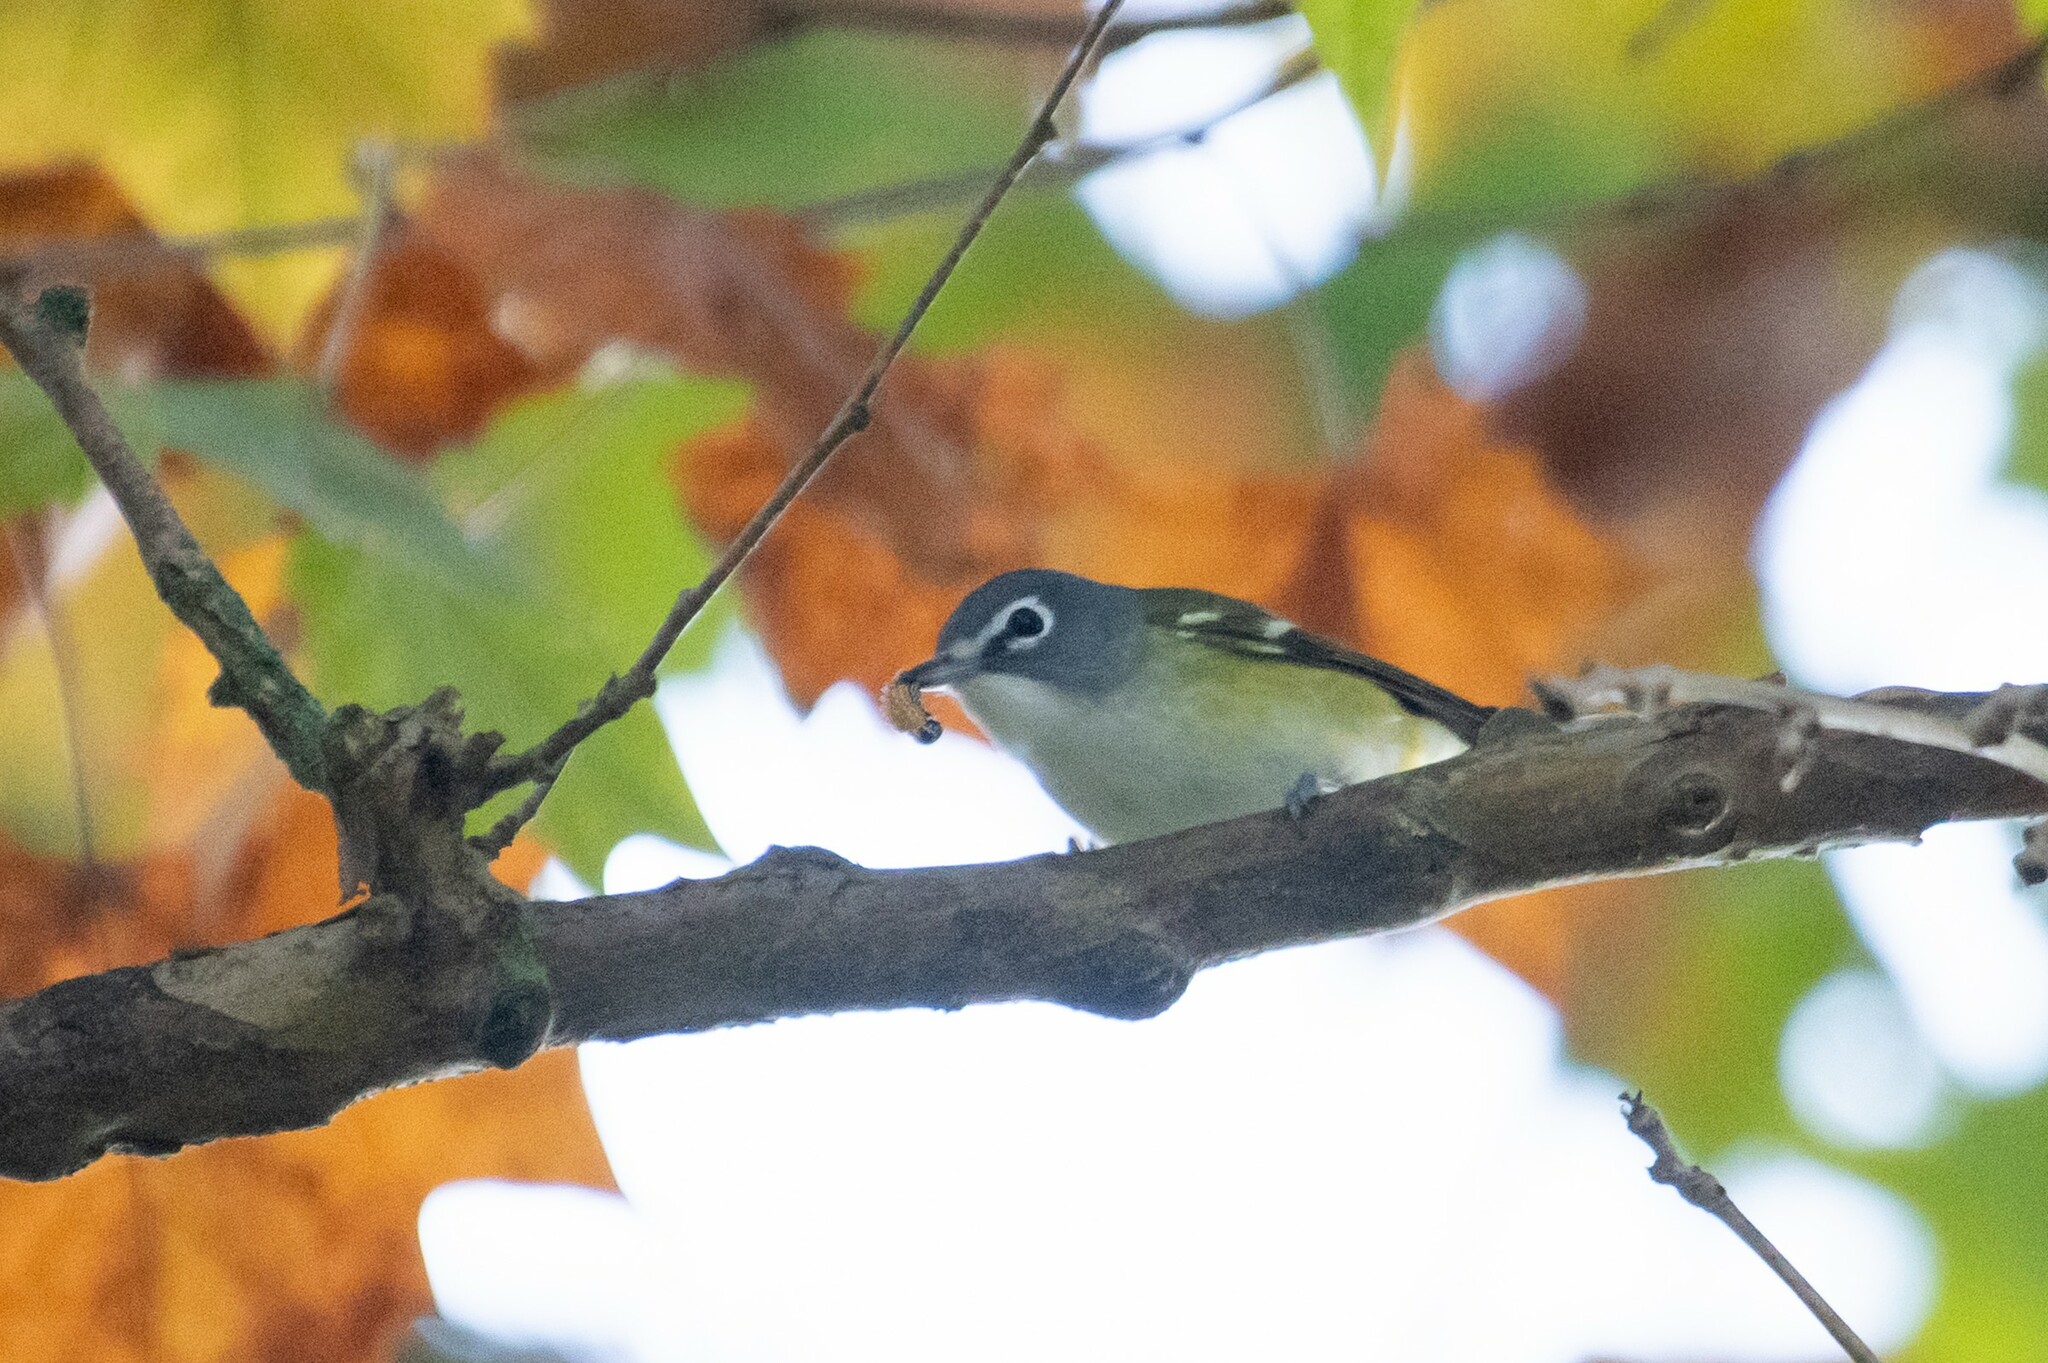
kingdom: Animalia
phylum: Chordata
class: Aves
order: Passeriformes
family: Vireonidae
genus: Vireo
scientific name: Vireo solitarius
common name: Blue-headed vireo
